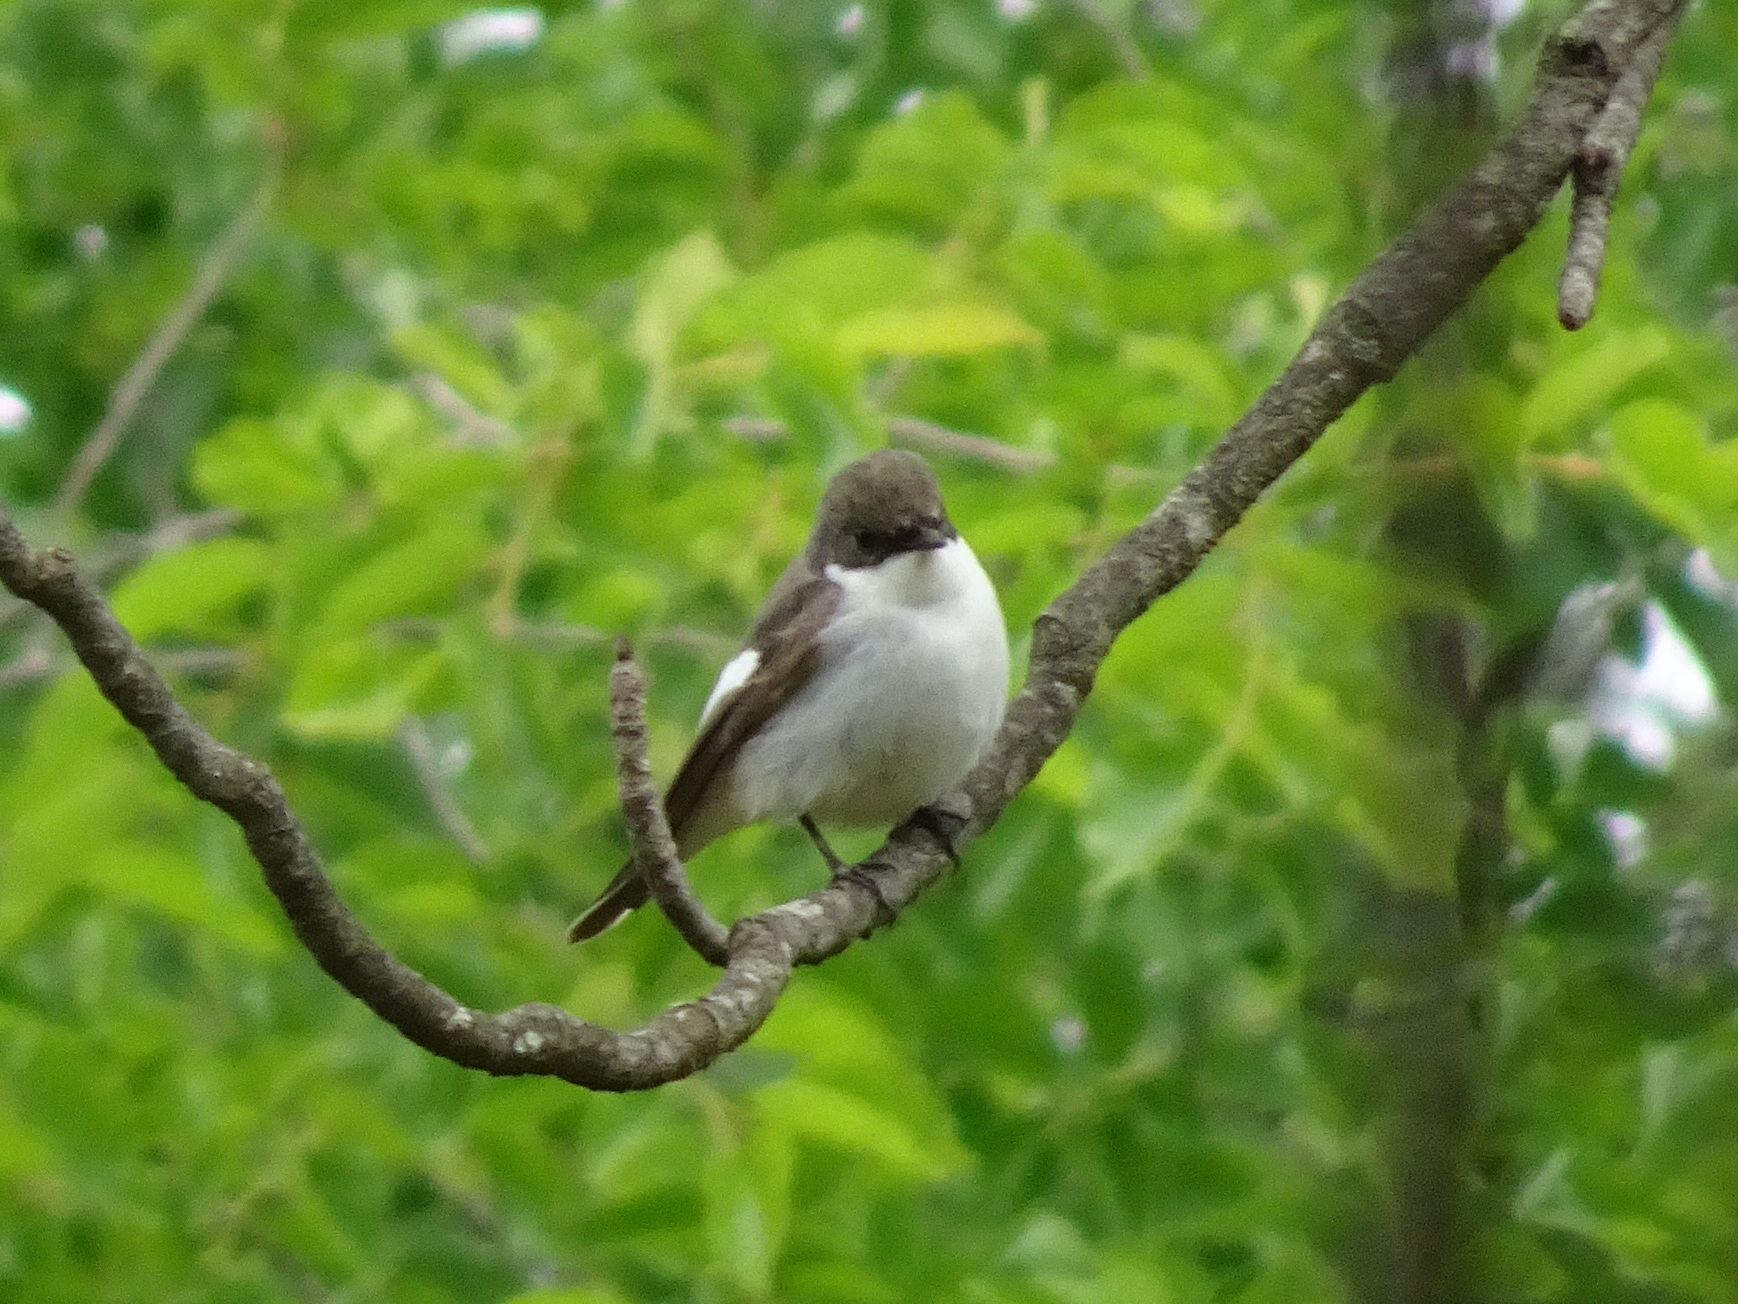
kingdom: Animalia
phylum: Chordata
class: Aves
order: Passeriformes
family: Muscicapidae
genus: Ficedula
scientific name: Ficedula hypoleuca
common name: European pied flycatcher
